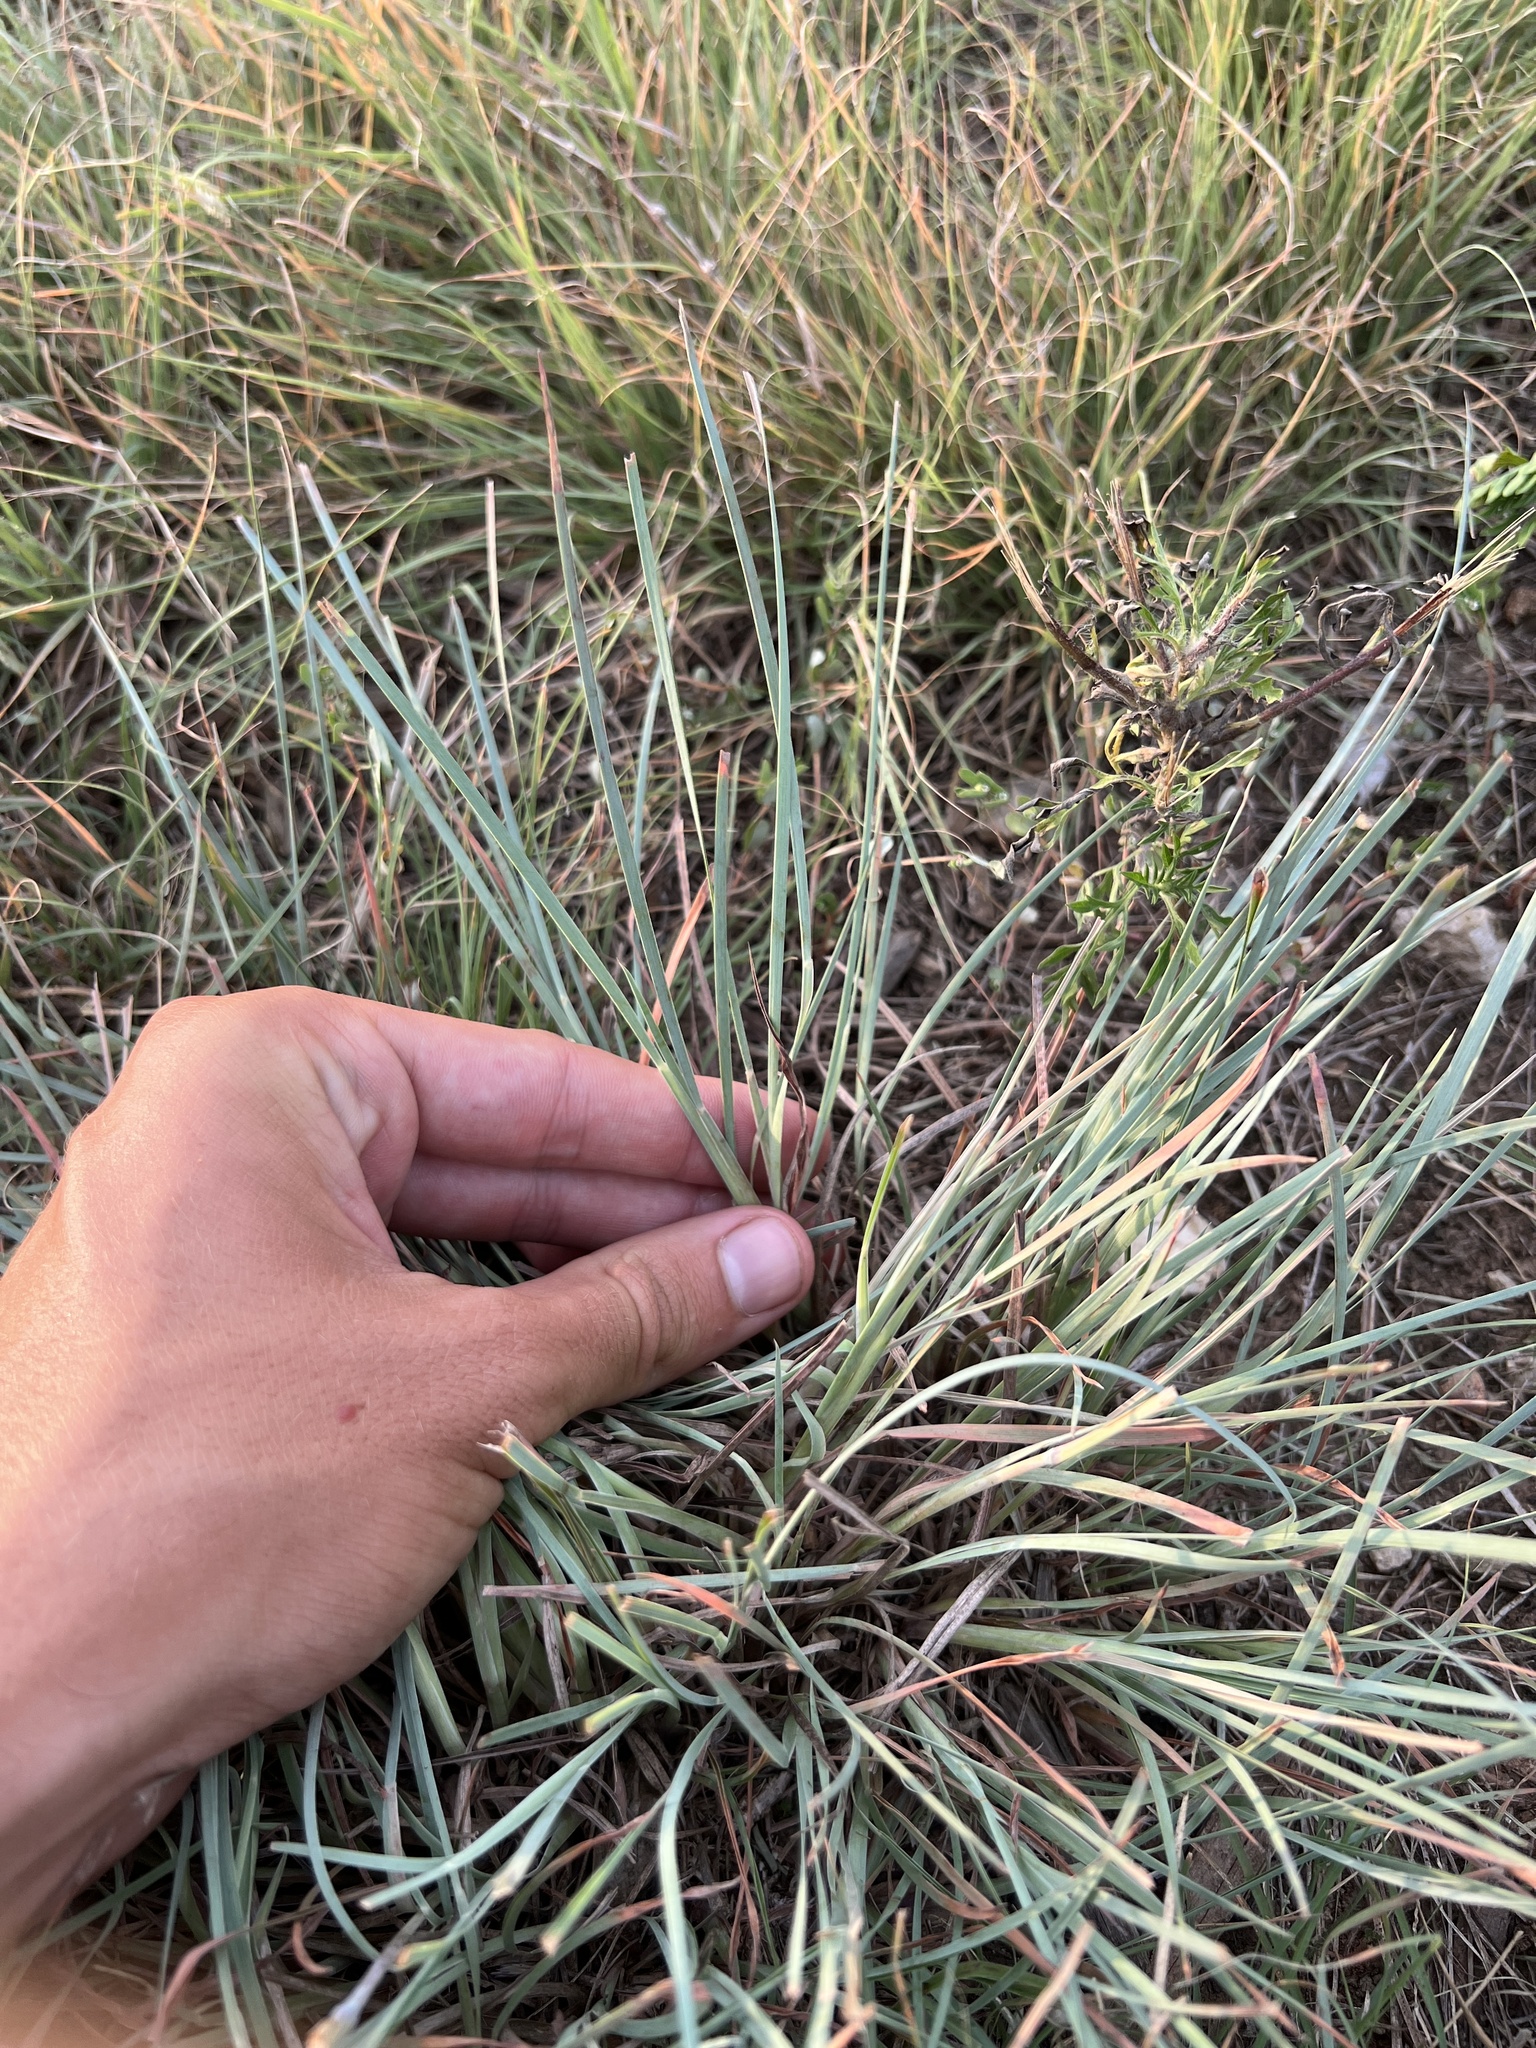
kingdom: Plantae
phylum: Tracheophyta
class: Liliopsida
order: Poales
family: Poaceae
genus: Schizachyrium
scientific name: Schizachyrium scoparium
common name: Little bluestem
